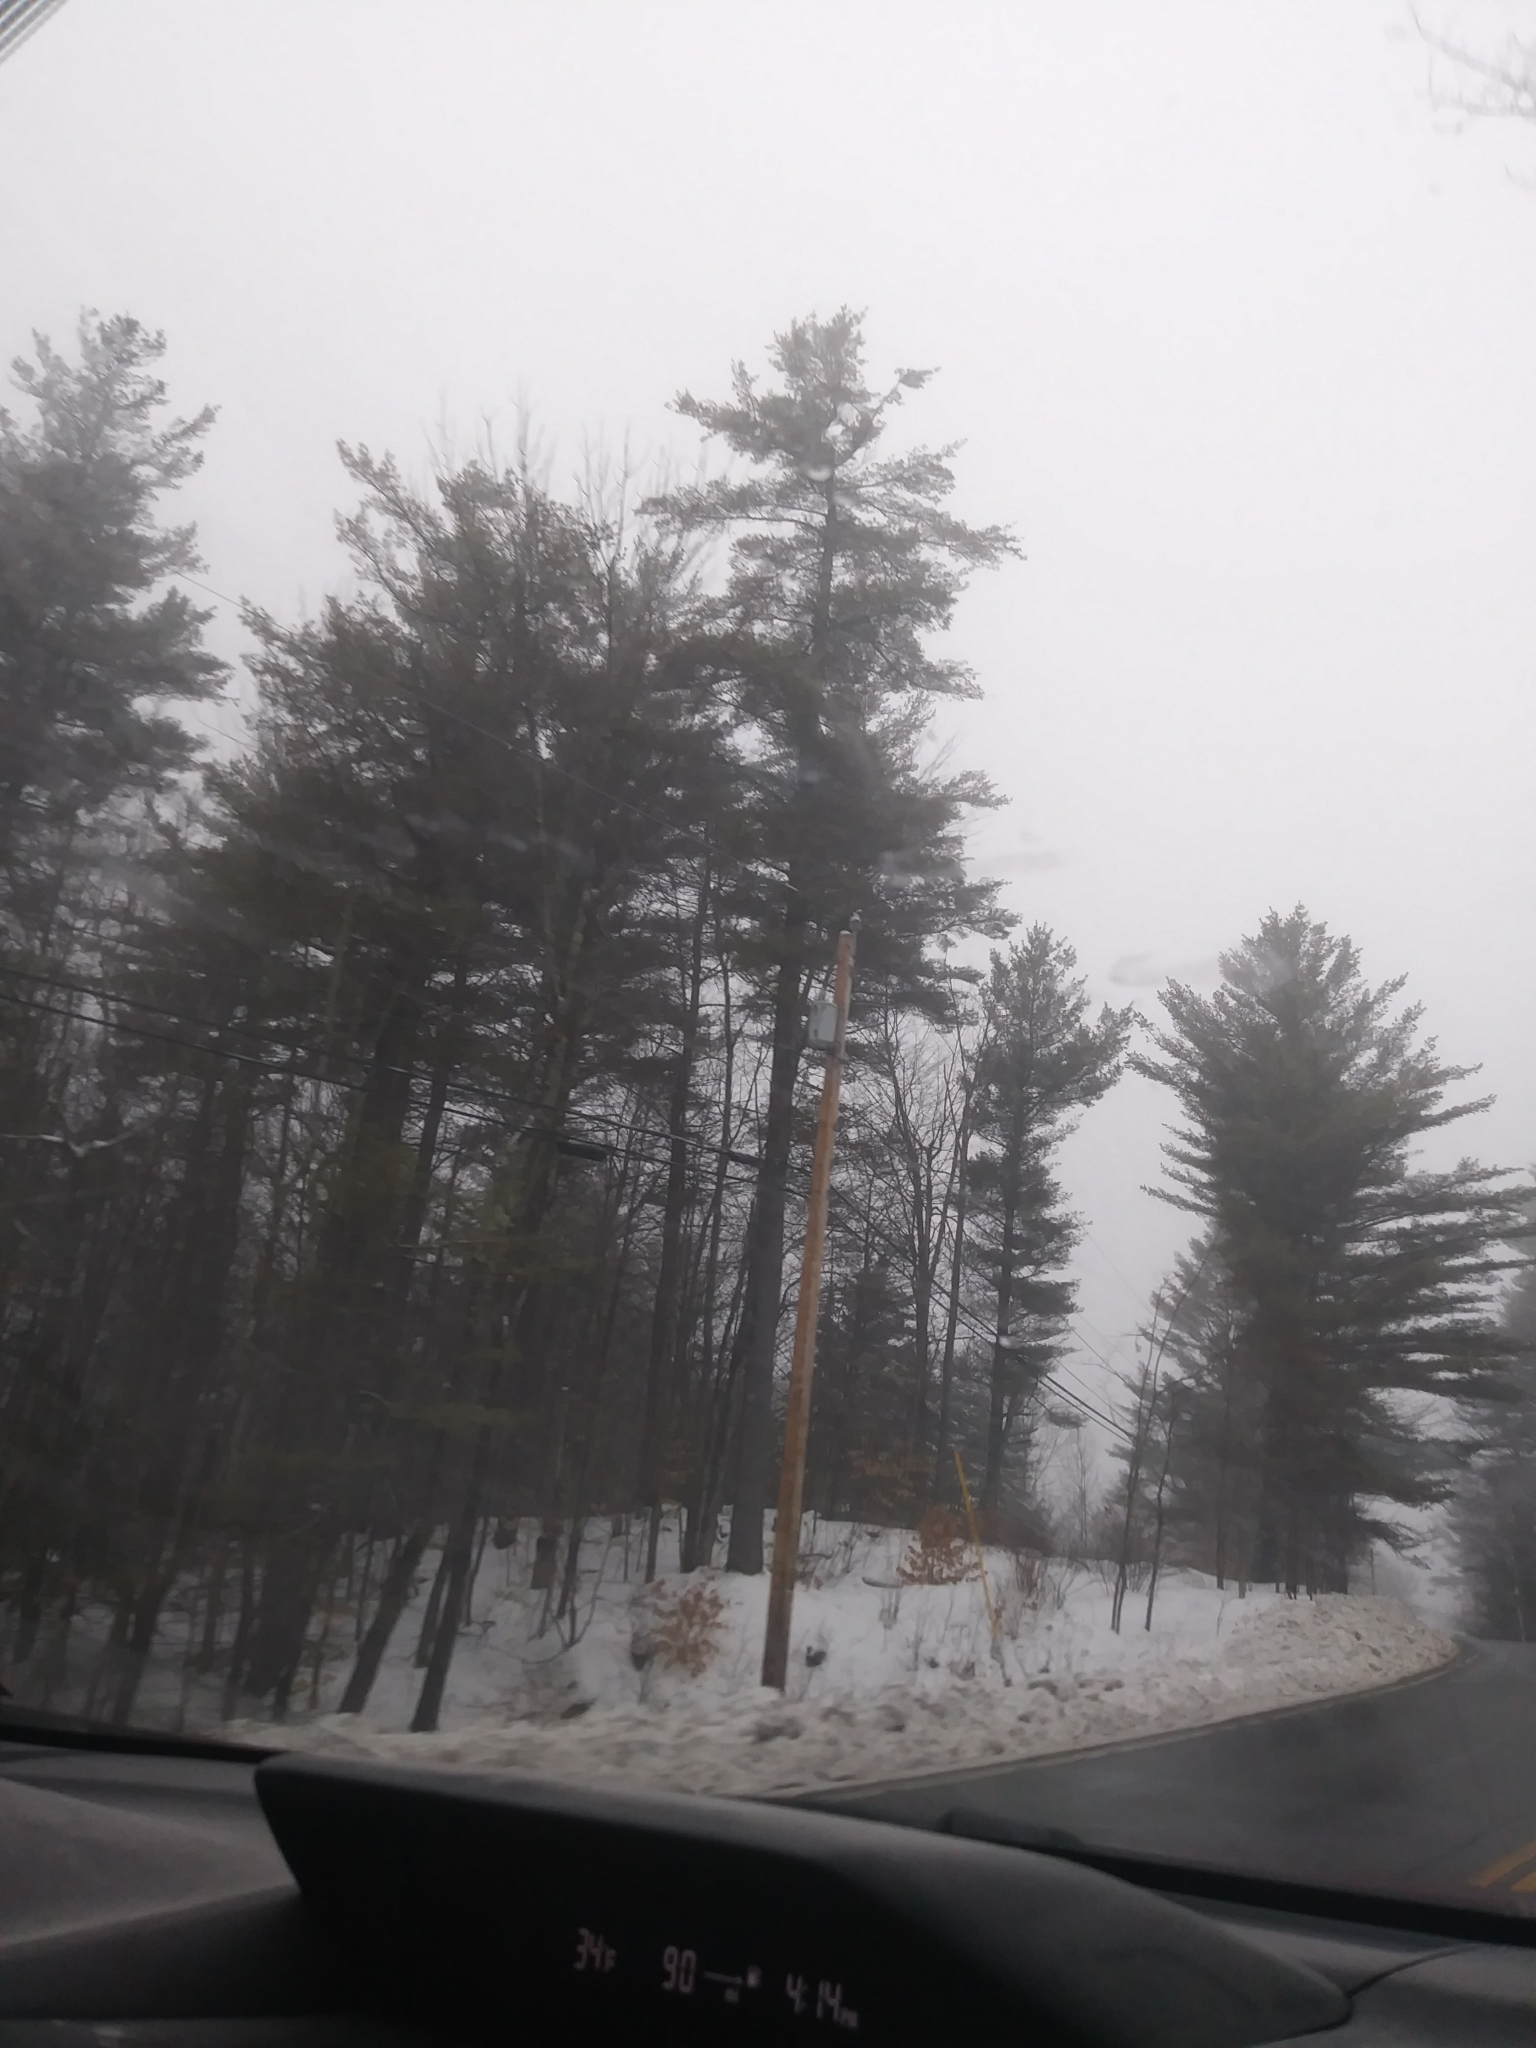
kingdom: Plantae
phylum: Tracheophyta
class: Pinopsida
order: Pinales
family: Pinaceae
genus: Pinus
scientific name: Pinus strobus
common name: Weymouth pine
